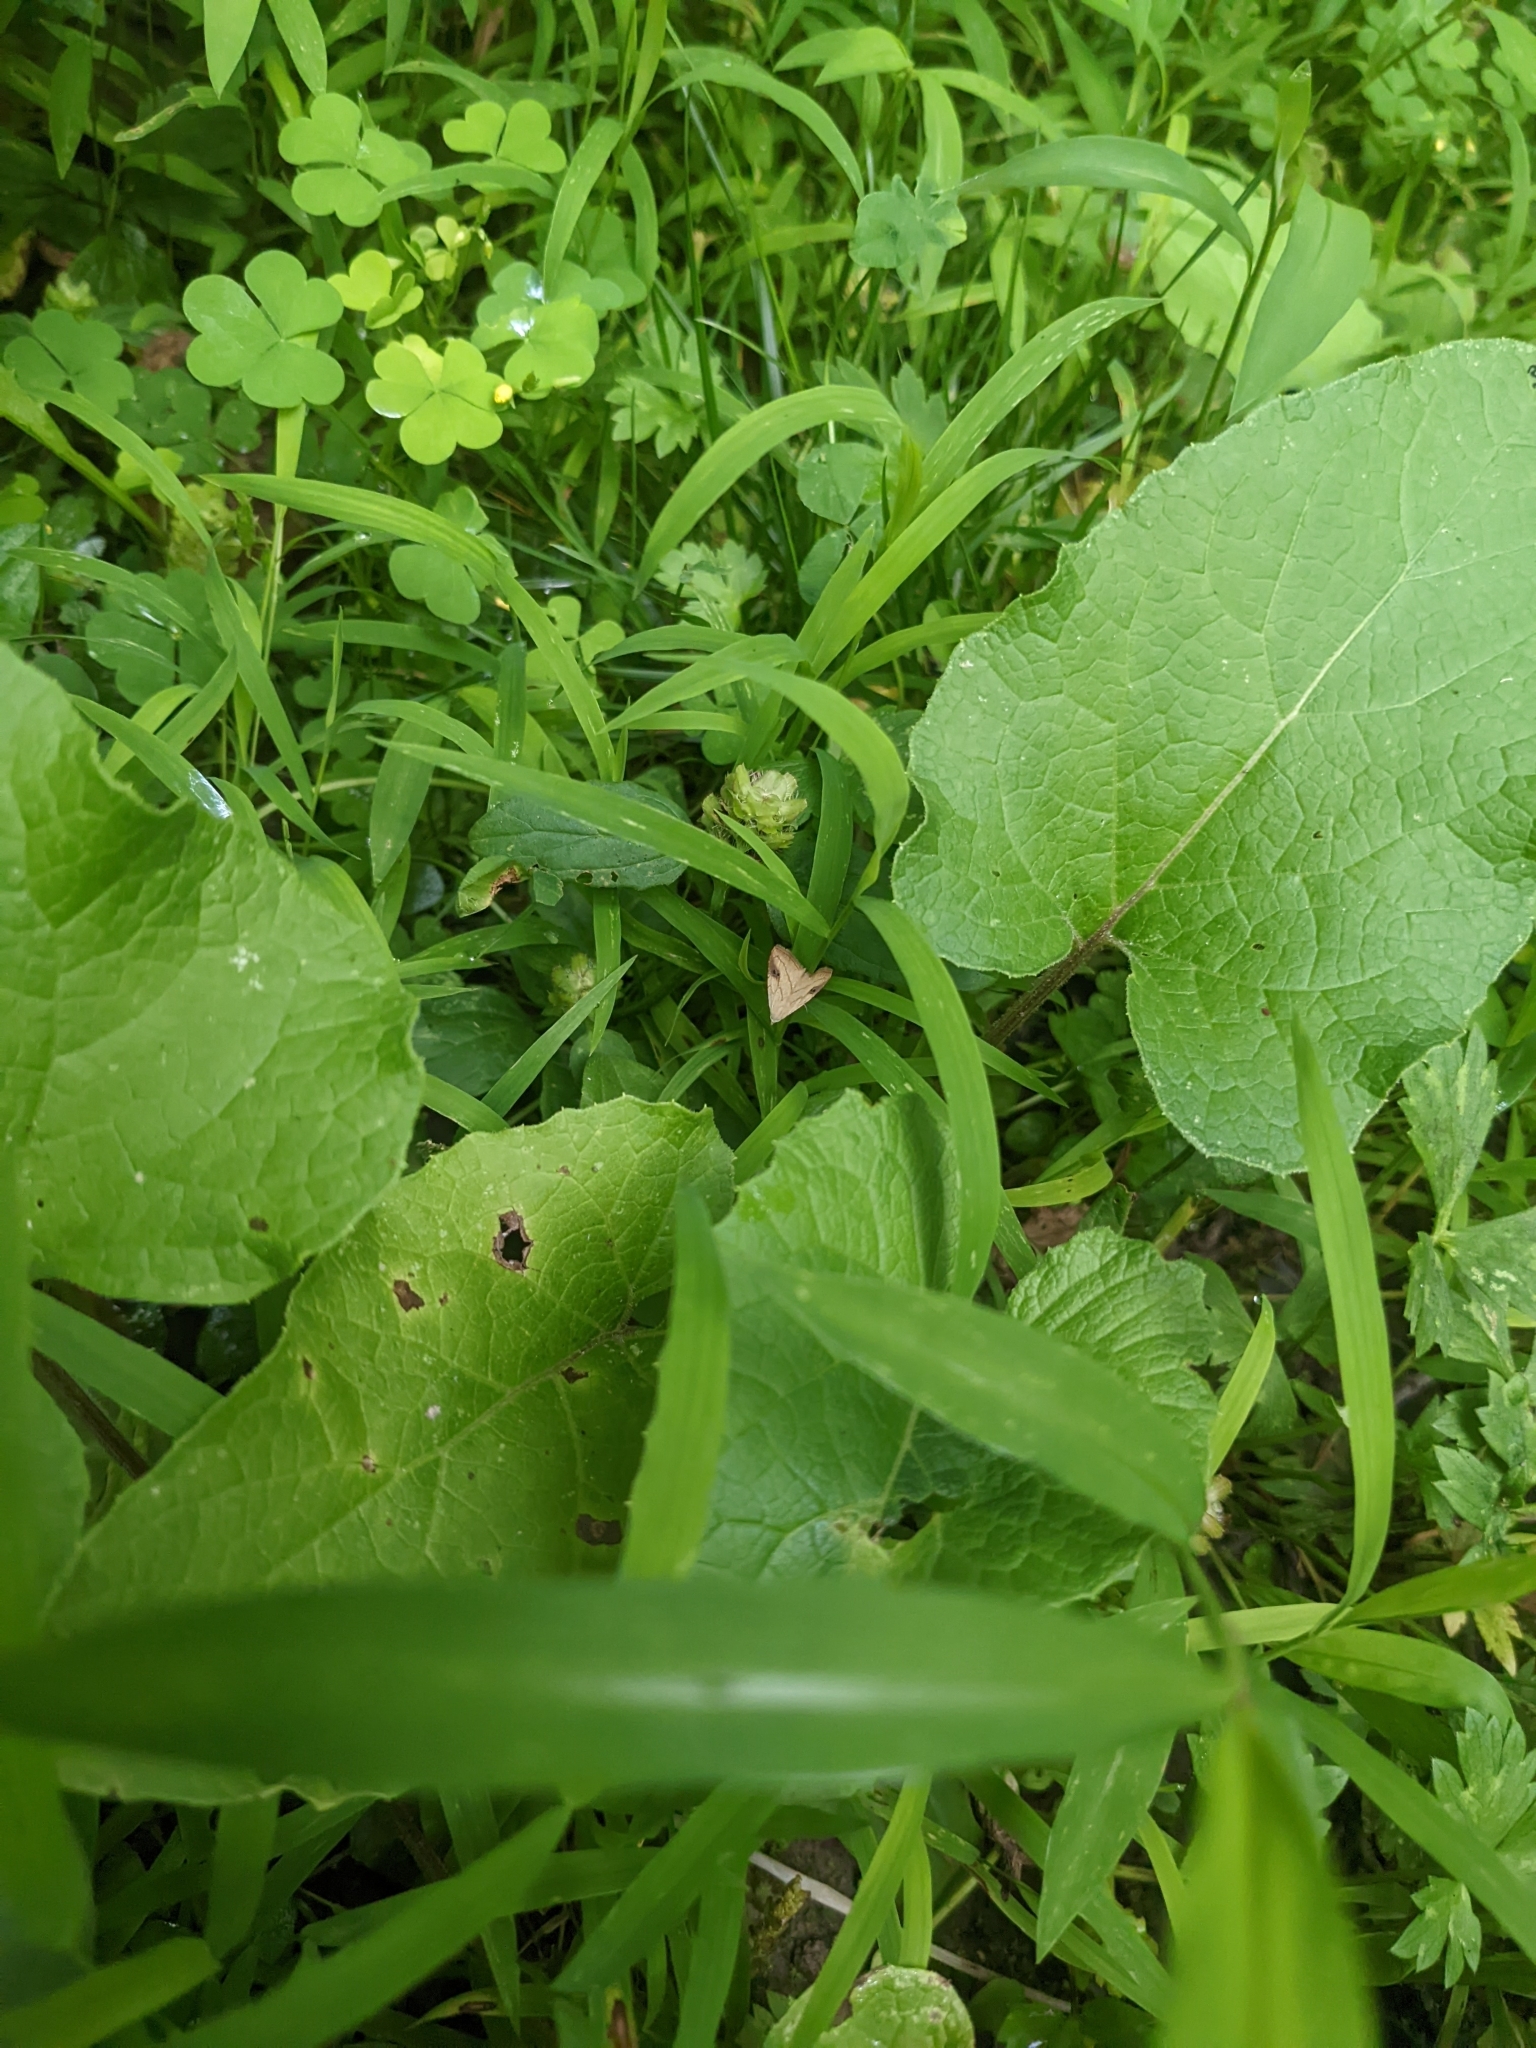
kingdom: Animalia
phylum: Arthropoda
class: Insecta
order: Lepidoptera
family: Erebidae
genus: Rivula
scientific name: Rivula propinqualis
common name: Spotted grass moth
